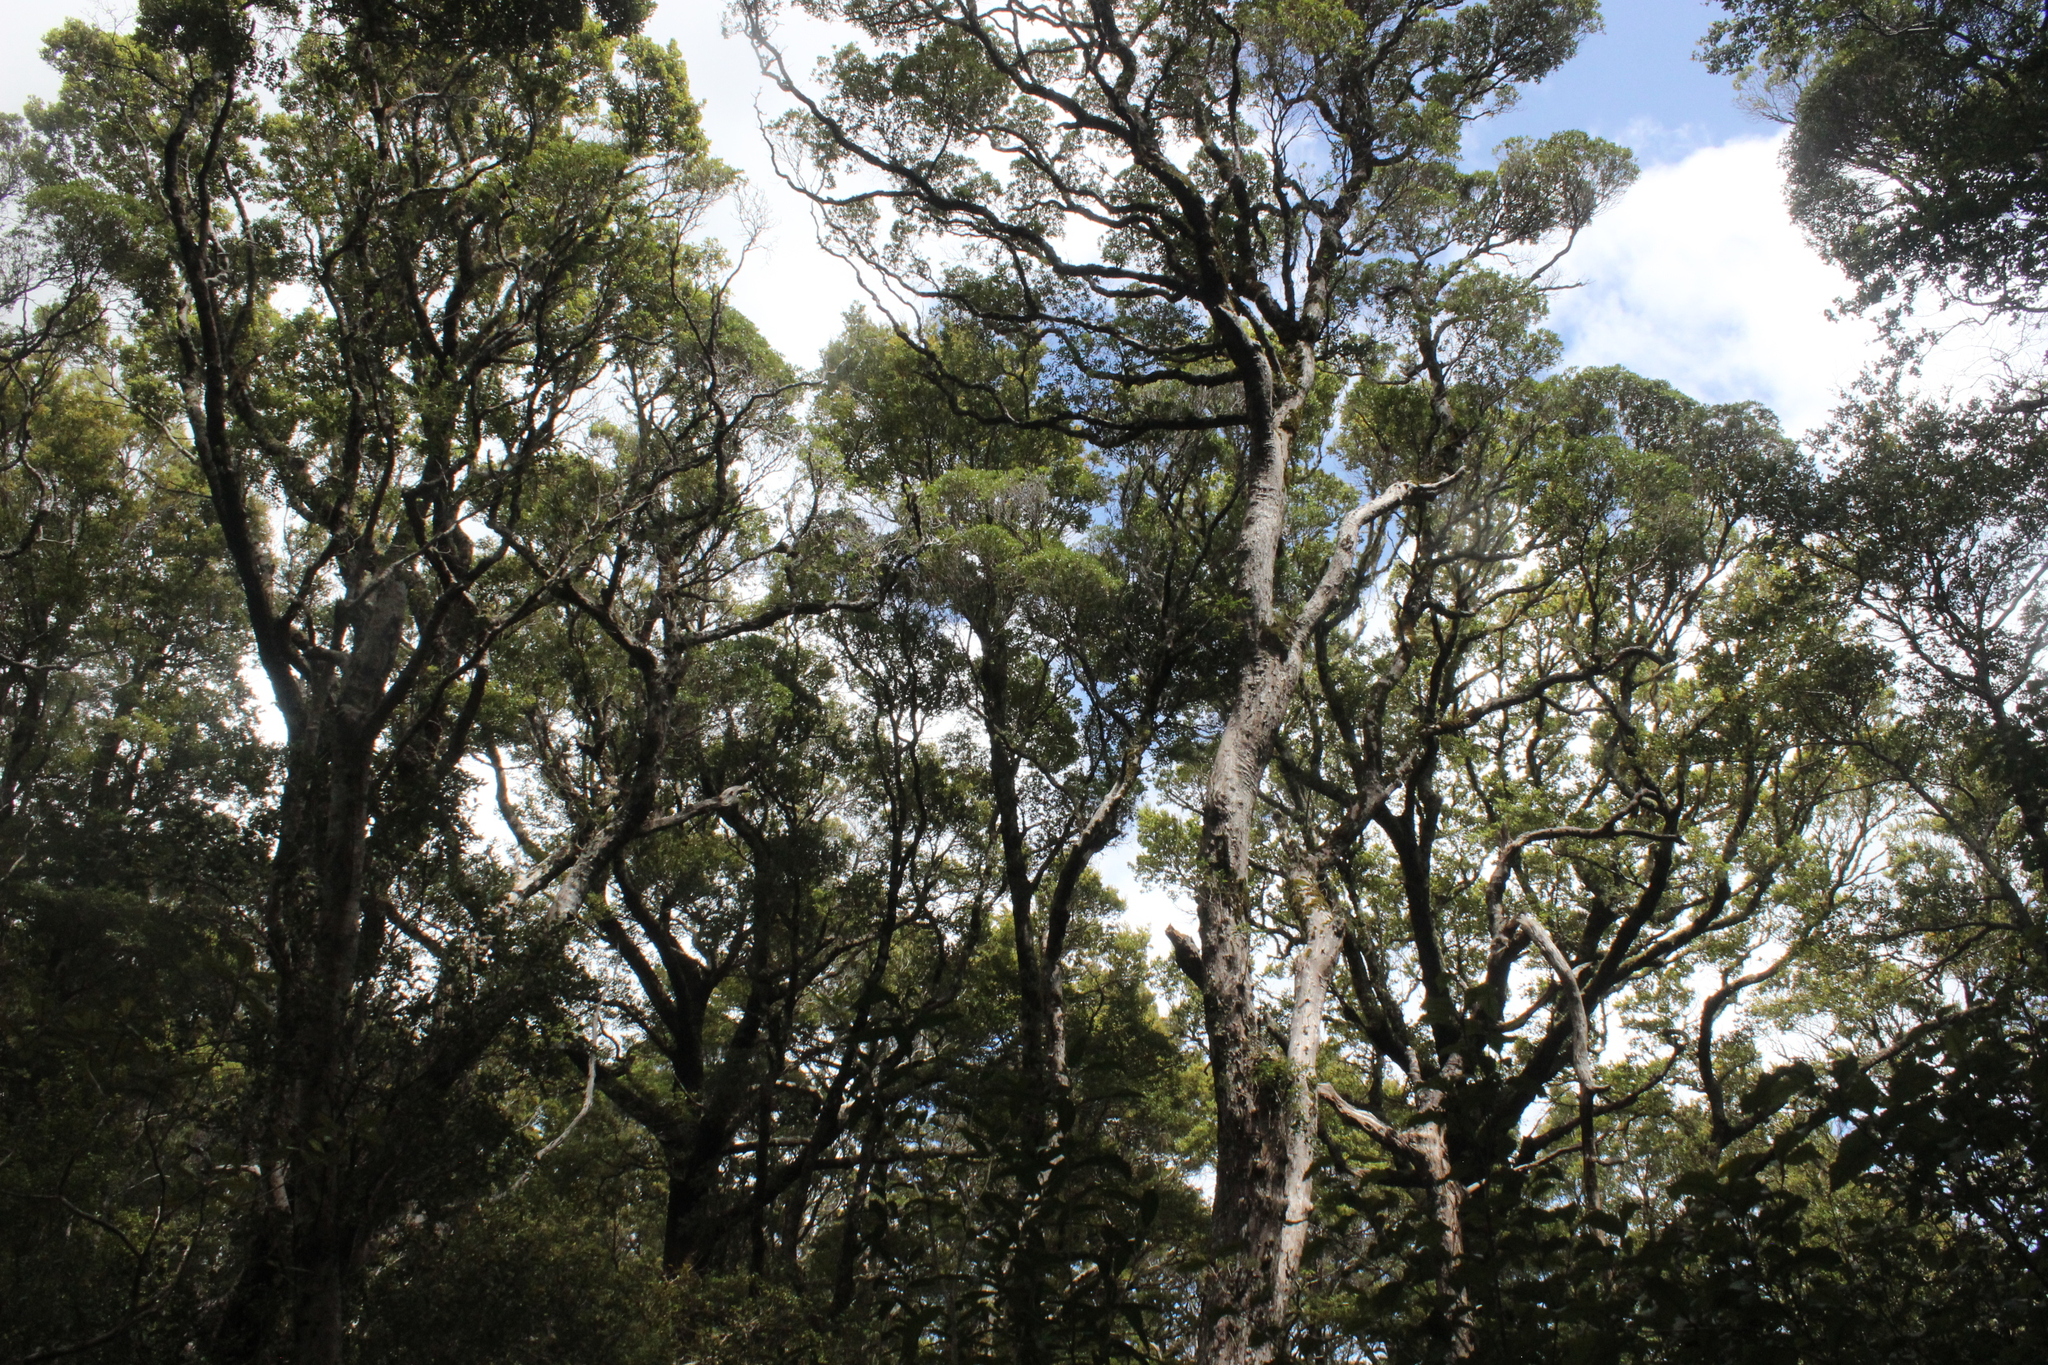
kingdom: Plantae
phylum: Tracheophyta
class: Magnoliopsida
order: Myrtales
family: Myrtaceae
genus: Metrosideros
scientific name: Metrosideros robusta
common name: Northern rata
